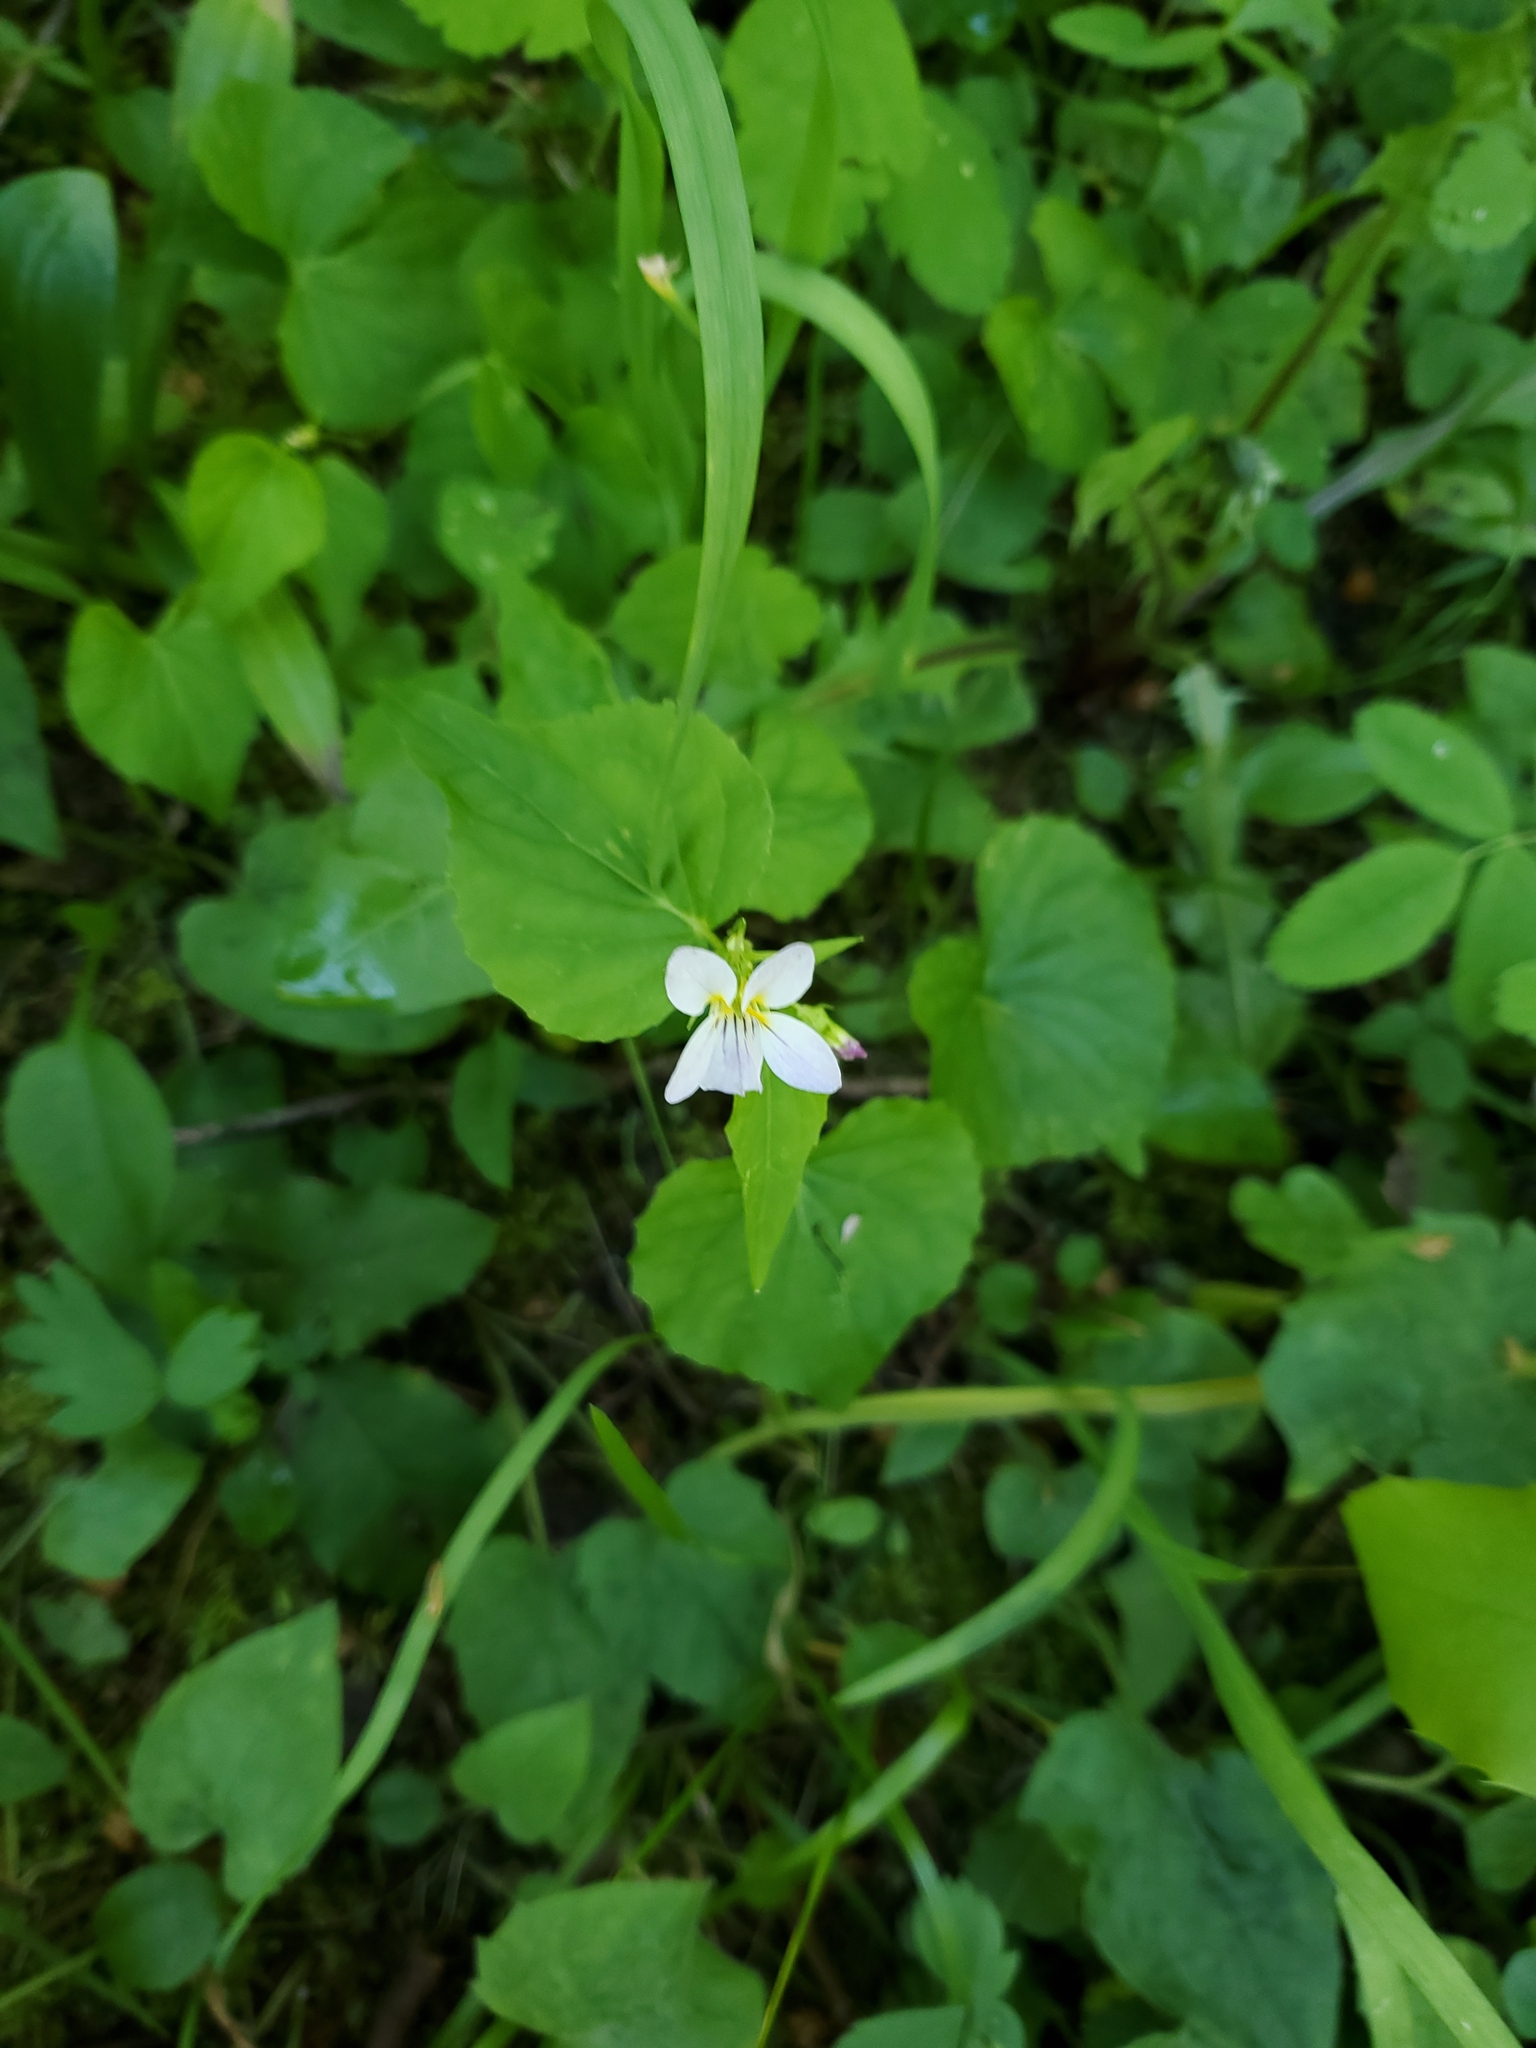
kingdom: Plantae
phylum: Tracheophyta
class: Magnoliopsida
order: Malpighiales
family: Violaceae
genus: Viola
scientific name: Viola canadensis
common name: Canada violet
